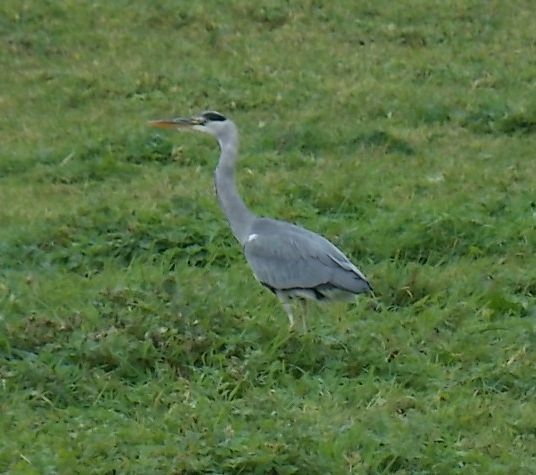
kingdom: Animalia
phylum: Chordata
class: Aves
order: Pelecaniformes
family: Ardeidae
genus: Ardea
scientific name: Ardea cinerea
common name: Grey heron
